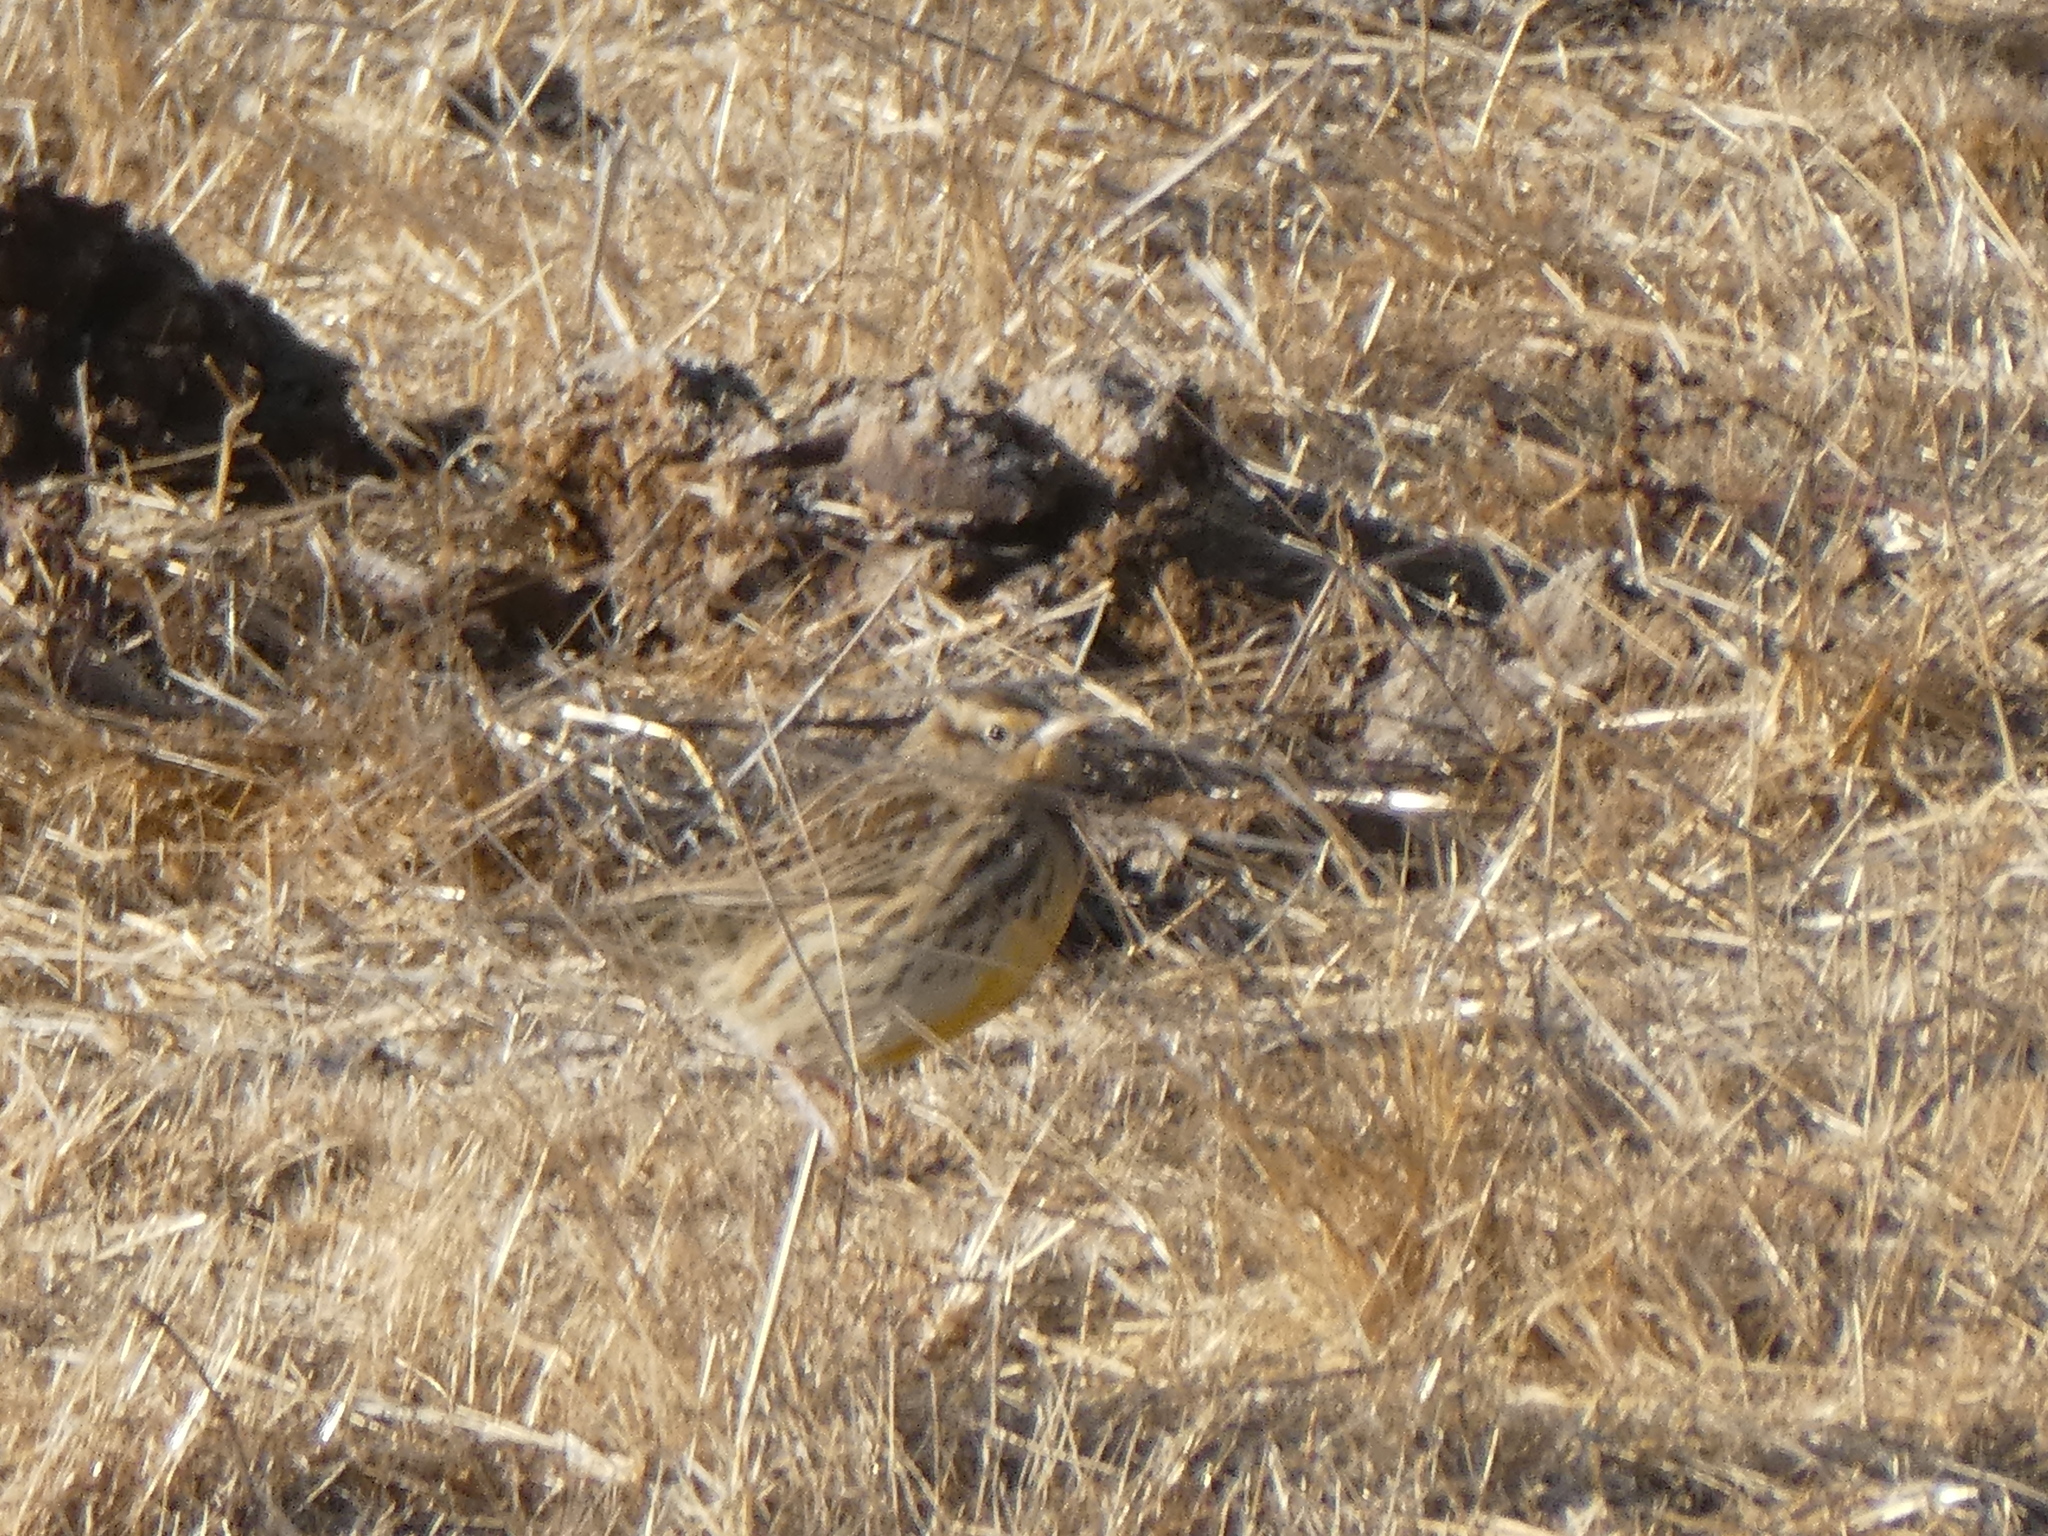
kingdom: Animalia
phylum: Chordata
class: Aves
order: Passeriformes
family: Icteridae
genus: Sturnella
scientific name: Sturnella neglecta
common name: Western meadowlark
